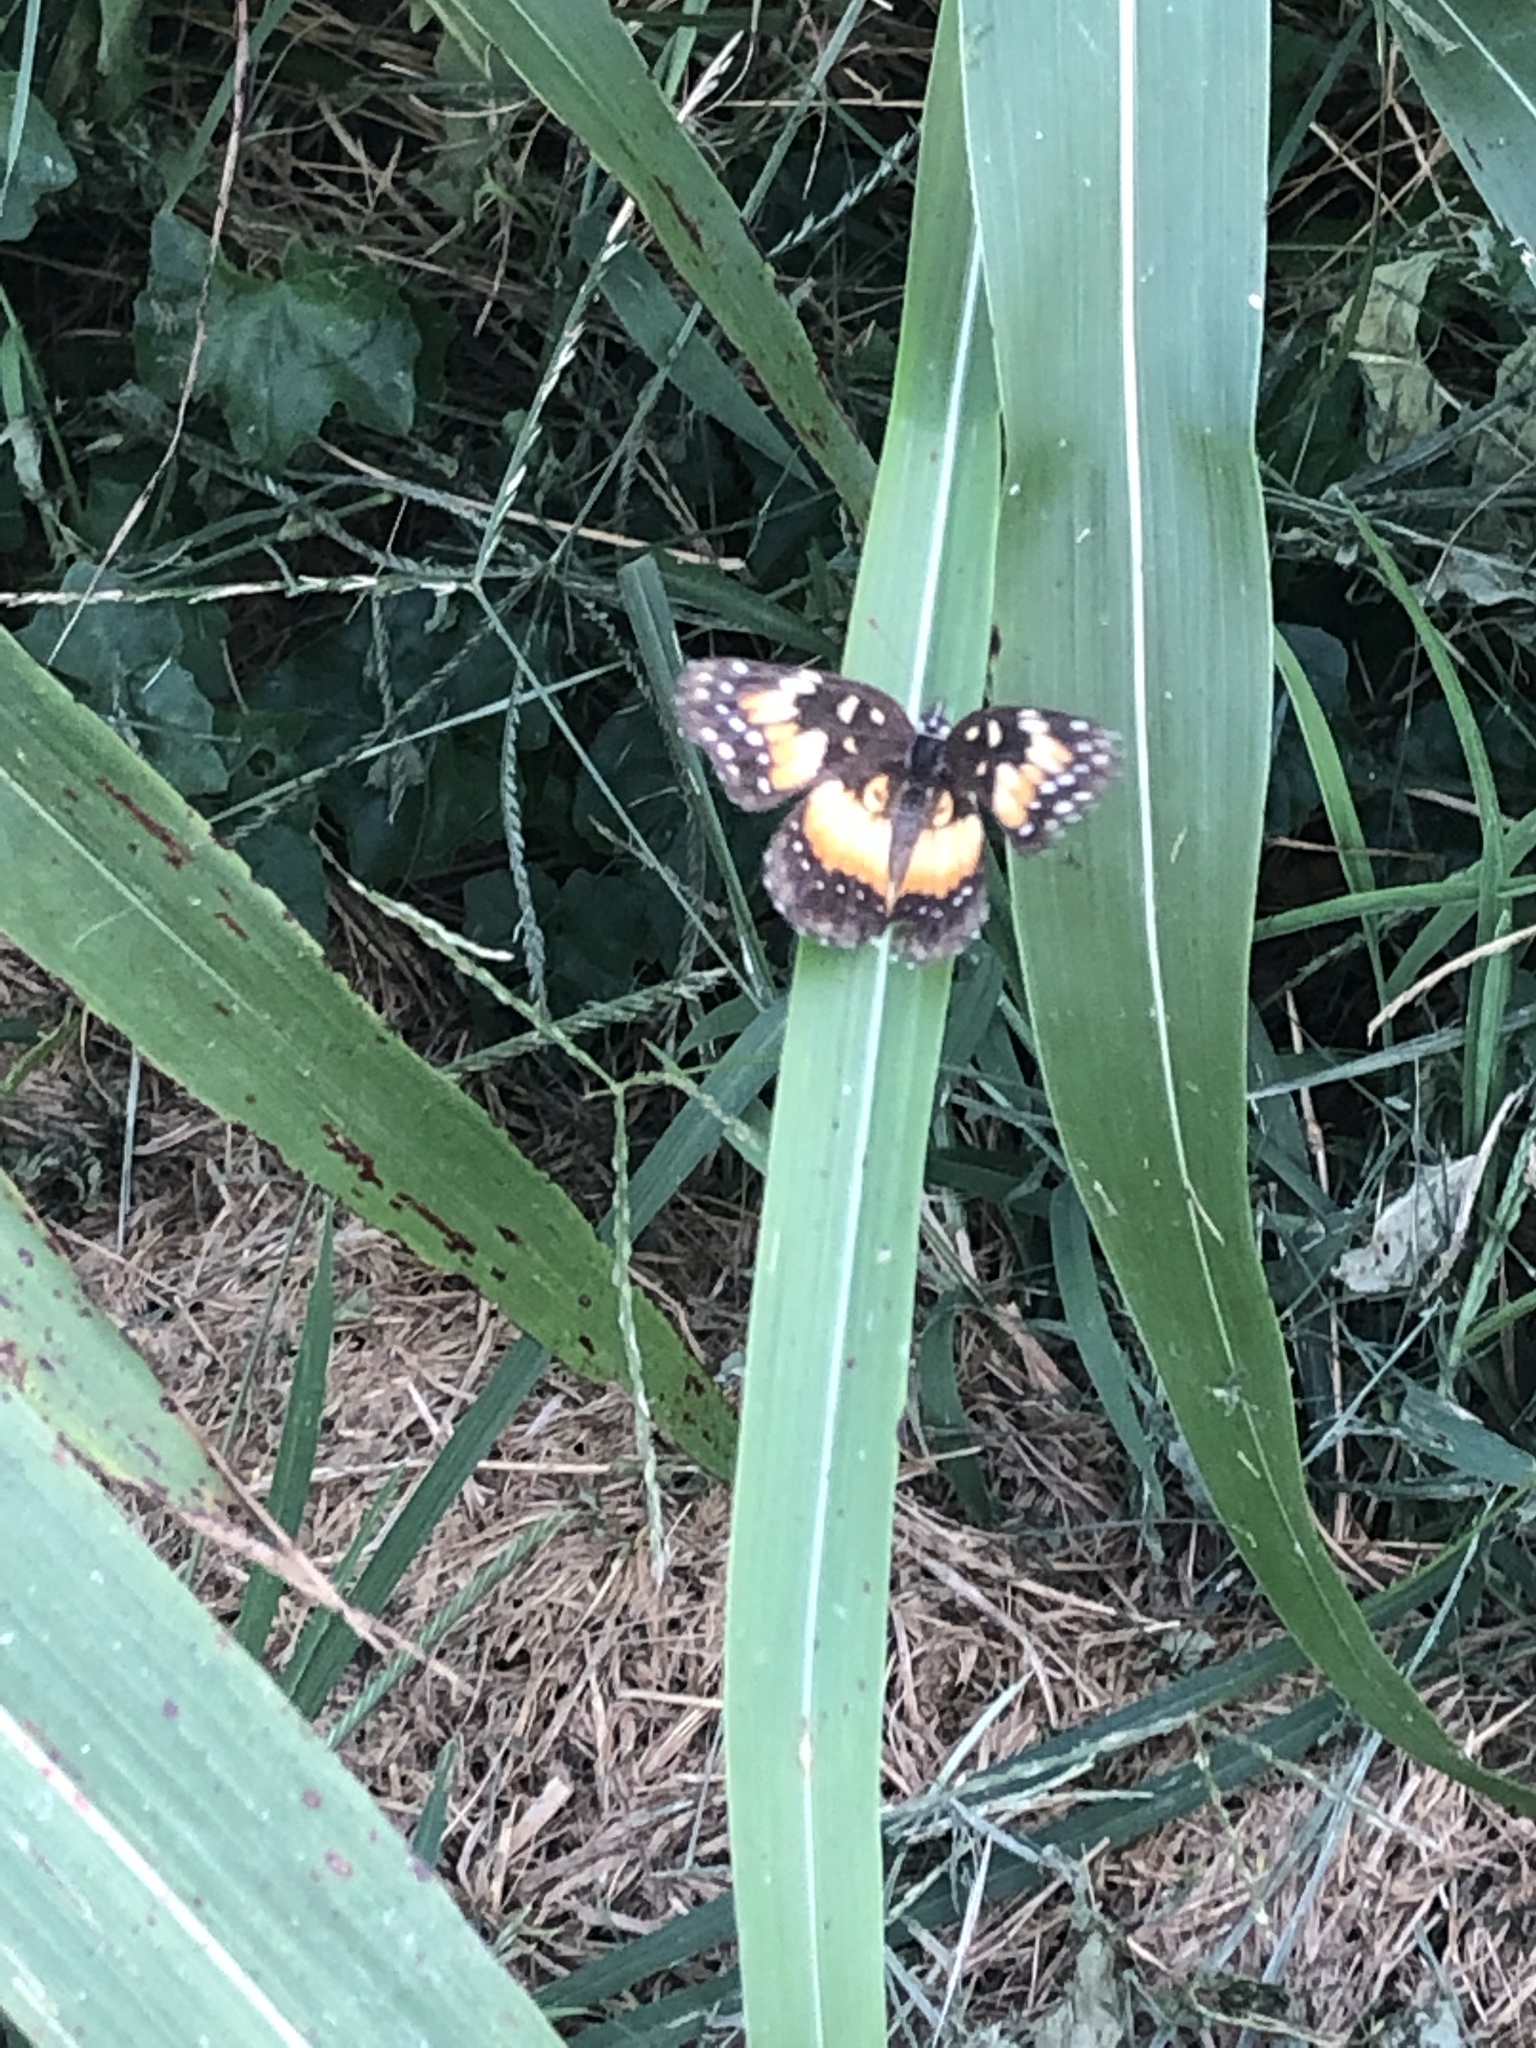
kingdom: Animalia
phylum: Arthropoda
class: Insecta
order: Lepidoptera
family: Nymphalidae
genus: Chlosyne
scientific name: Chlosyne lacinia
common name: Bordered patch
